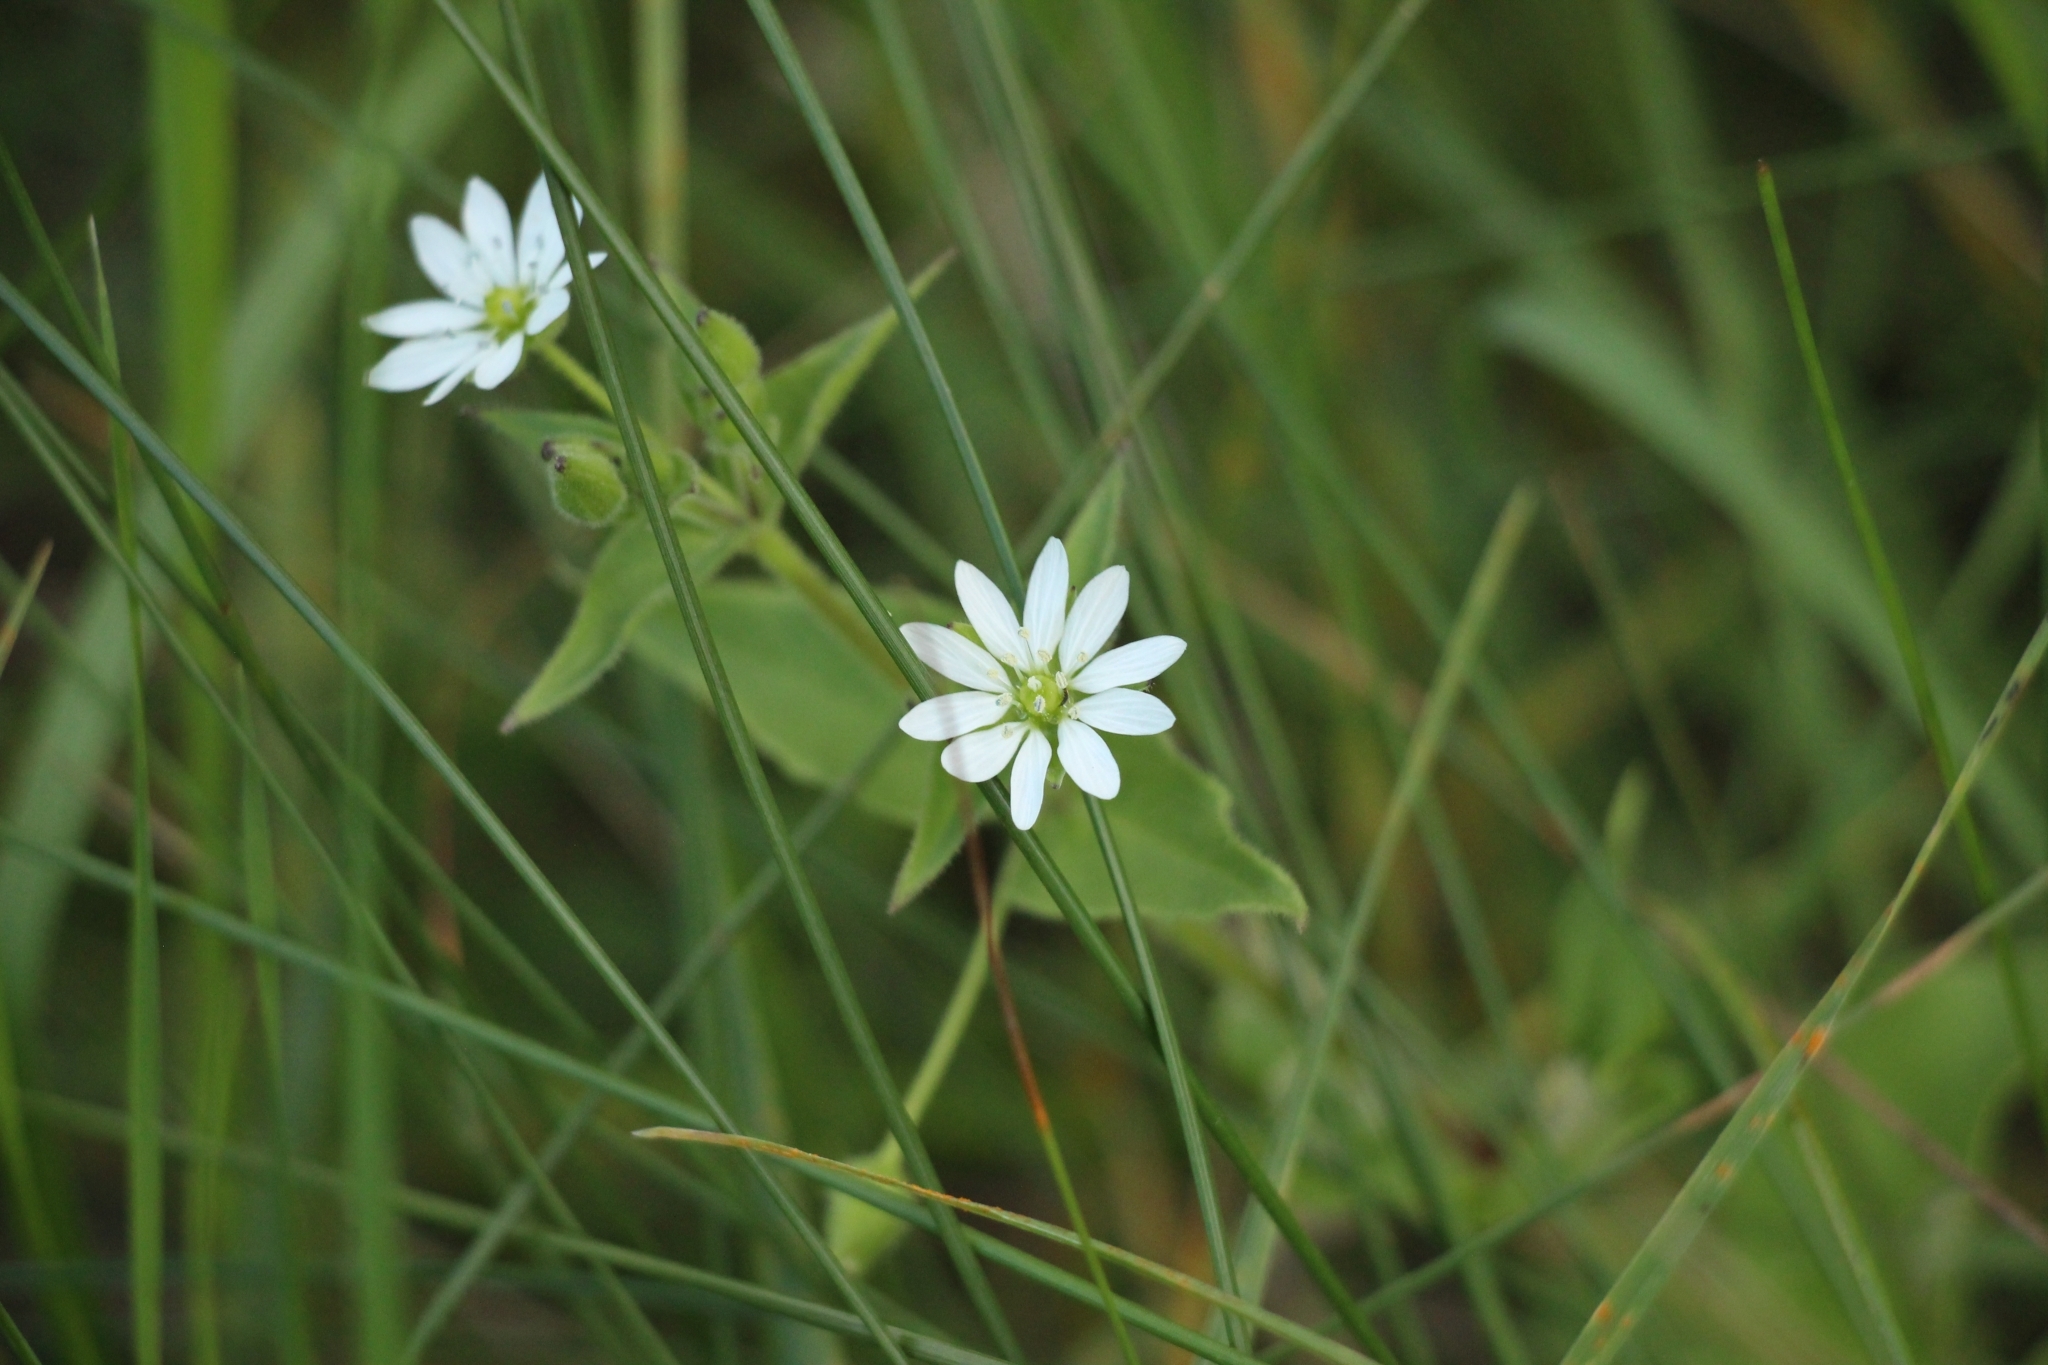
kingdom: Plantae
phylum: Tracheophyta
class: Magnoliopsida
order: Caryophyllales
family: Caryophyllaceae
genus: Stellaria
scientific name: Stellaria aquatica
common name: Water chickweed
